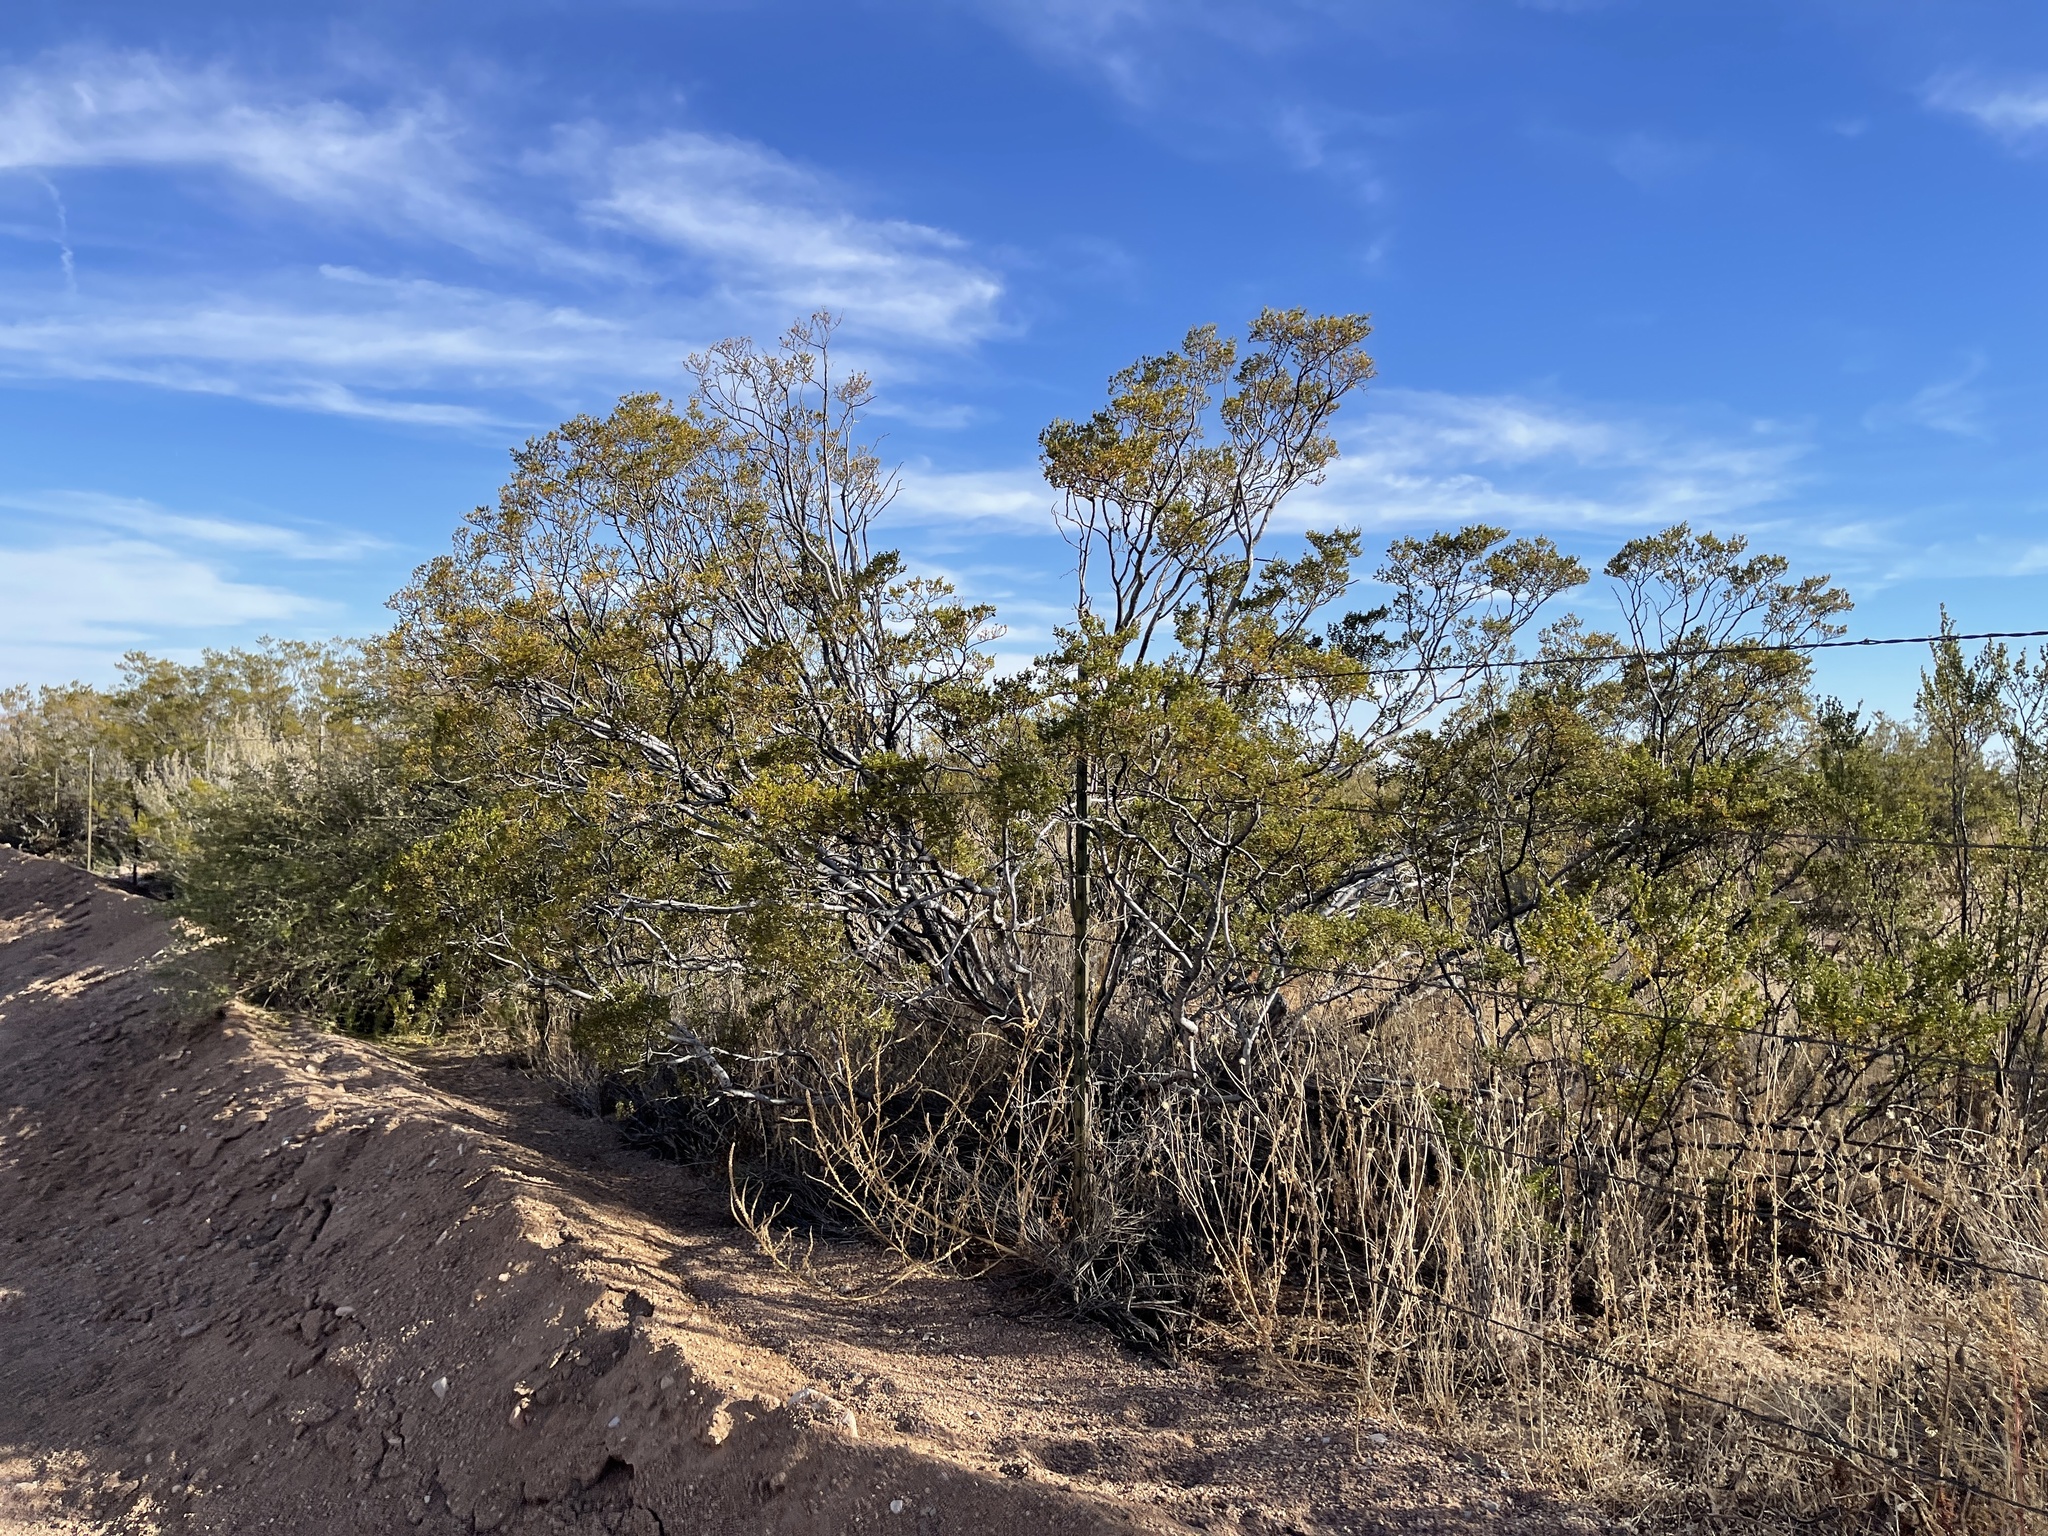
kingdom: Plantae
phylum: Tracheophyta
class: Magnoliopsida
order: Zygophyllales
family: Zygophyllaceae
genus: Larrea
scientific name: Larrea tridentata
